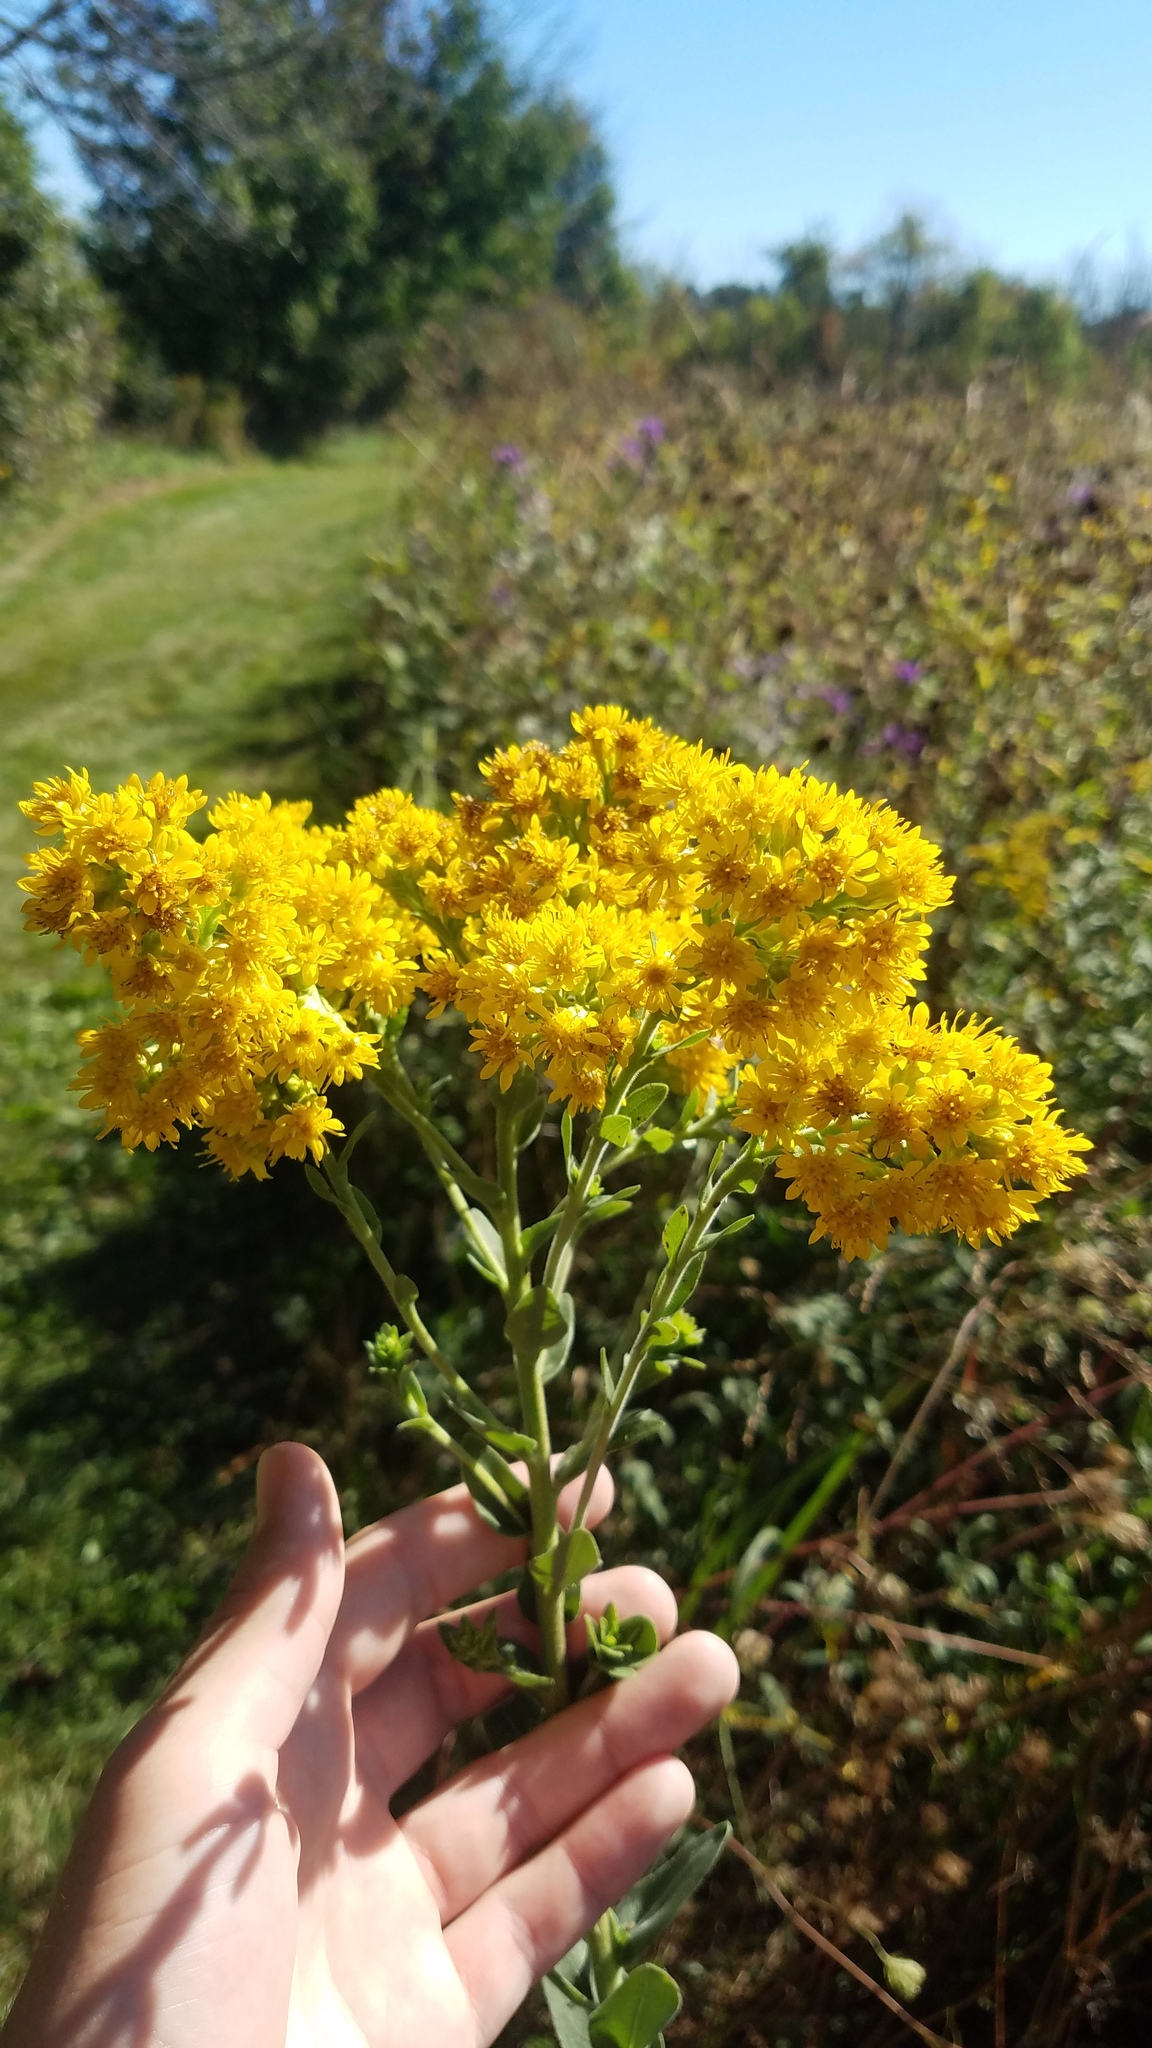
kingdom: Plantae
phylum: Tracheophyta
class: Magnoliopsida
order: Asterales
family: Asteraceae
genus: Solidago
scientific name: Solidago rigida
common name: Rigid goldenrod
